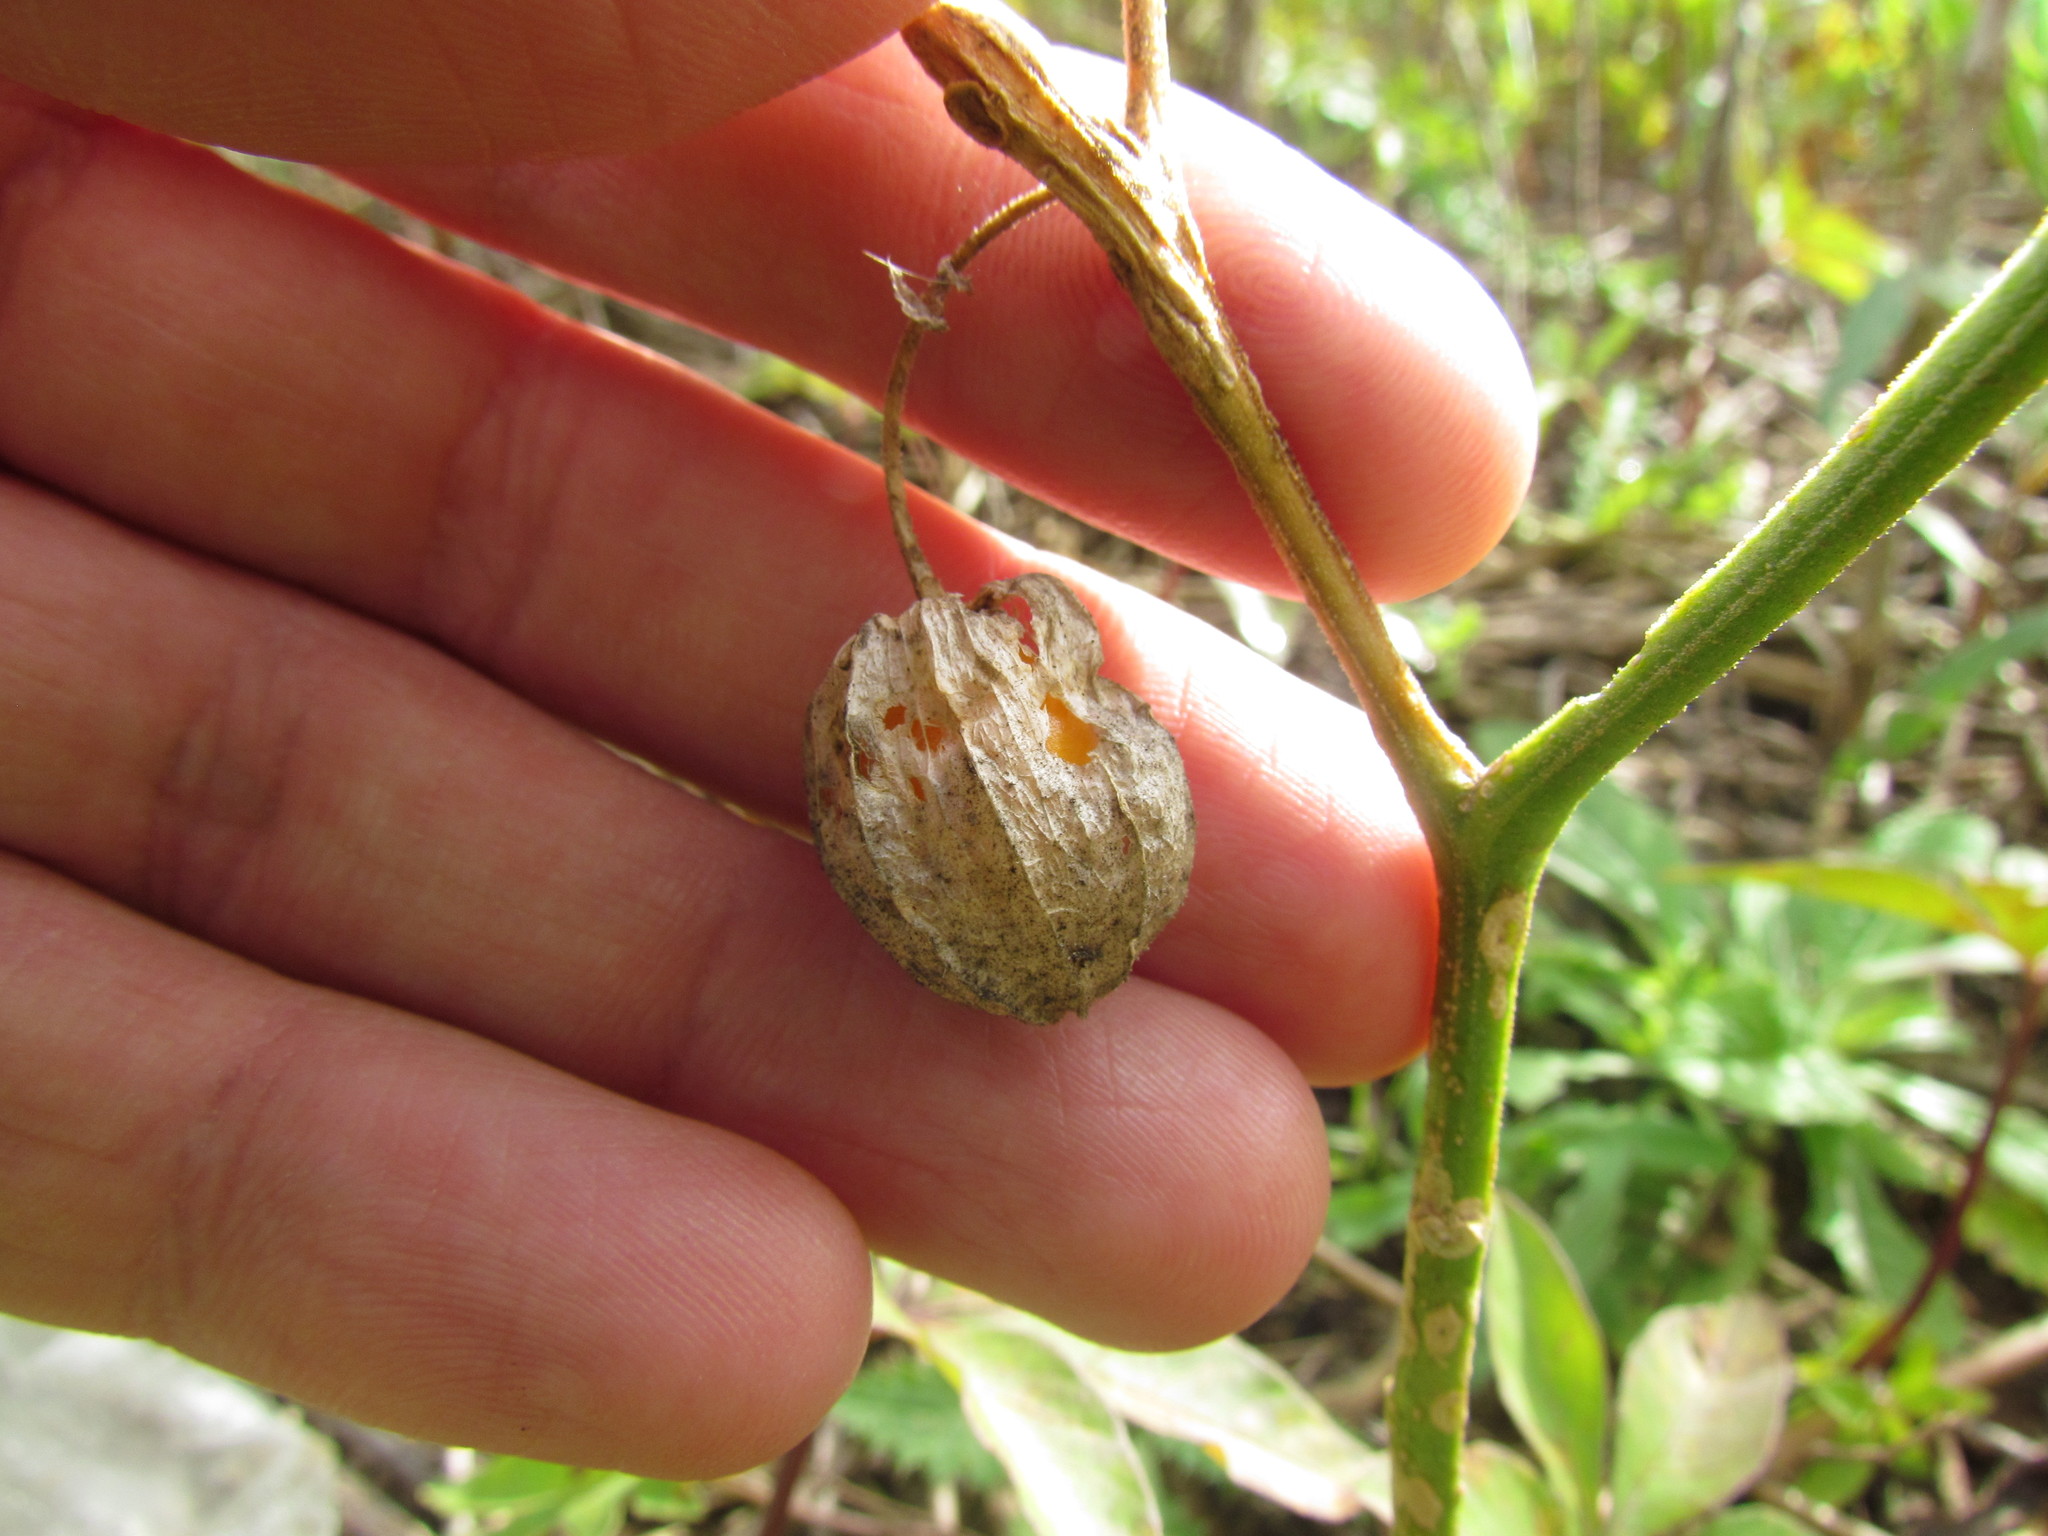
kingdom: Plantae
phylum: Tracheophyta
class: Magnoliopsida
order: Solanales
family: Solanaceae
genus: Physalis
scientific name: Physalis viscosa
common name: Stellate ground-cherry
